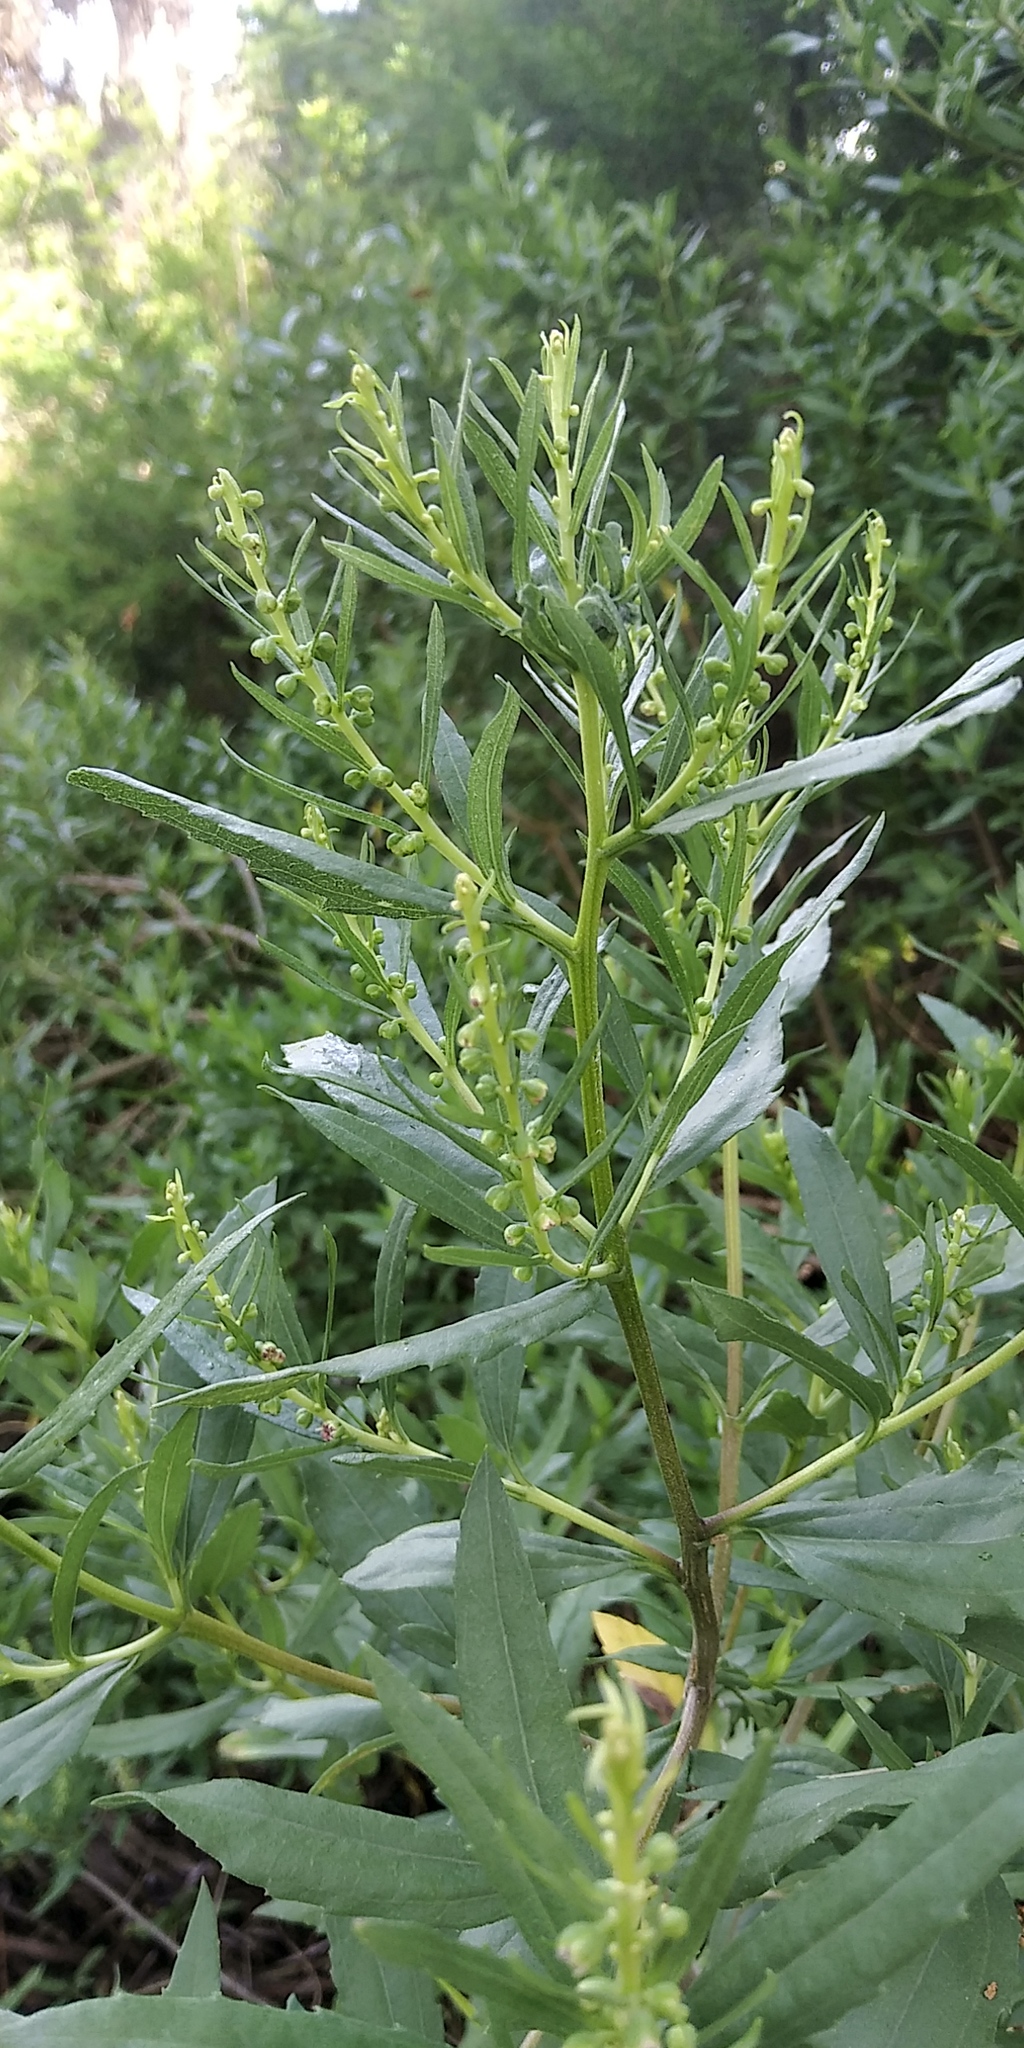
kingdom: Plantae
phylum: Tracheophyta
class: Magnoliopsida
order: Asterales
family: Asteraceae
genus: Iva
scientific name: Iva frutescens
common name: Big-leaved marsh-elder
